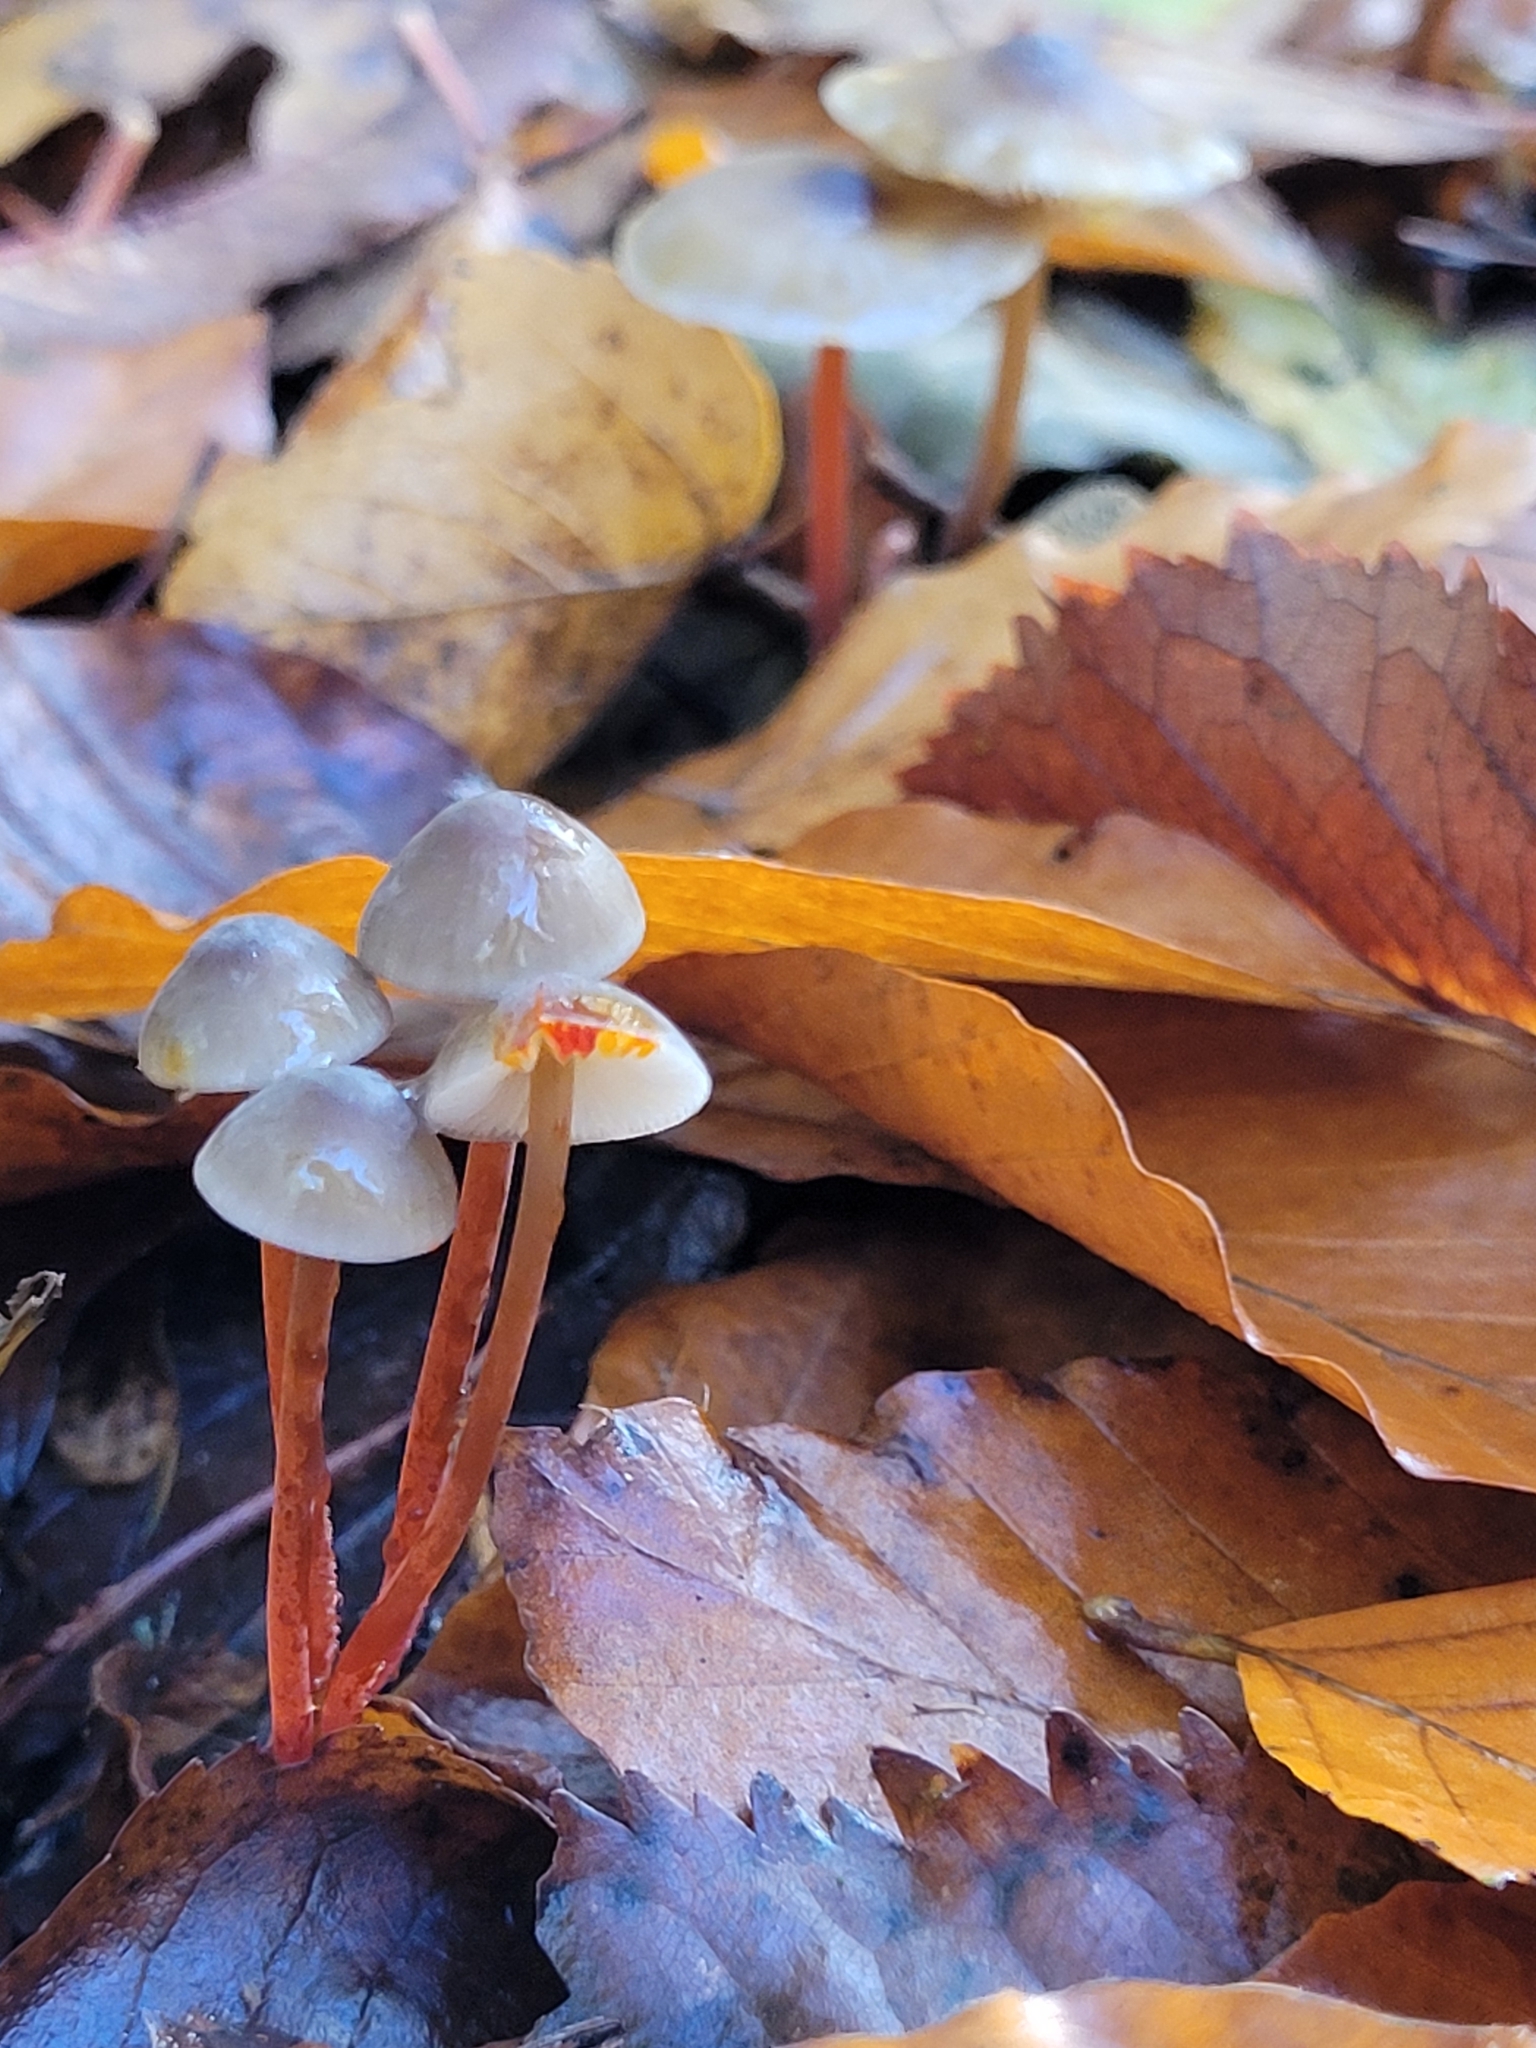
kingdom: Fungi
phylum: Basidiomycota
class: Agaricomycetes
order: Agaricales
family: Mycenaceae
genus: Mycena
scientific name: Mycena crocata
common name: Saffrondrop bonnet
